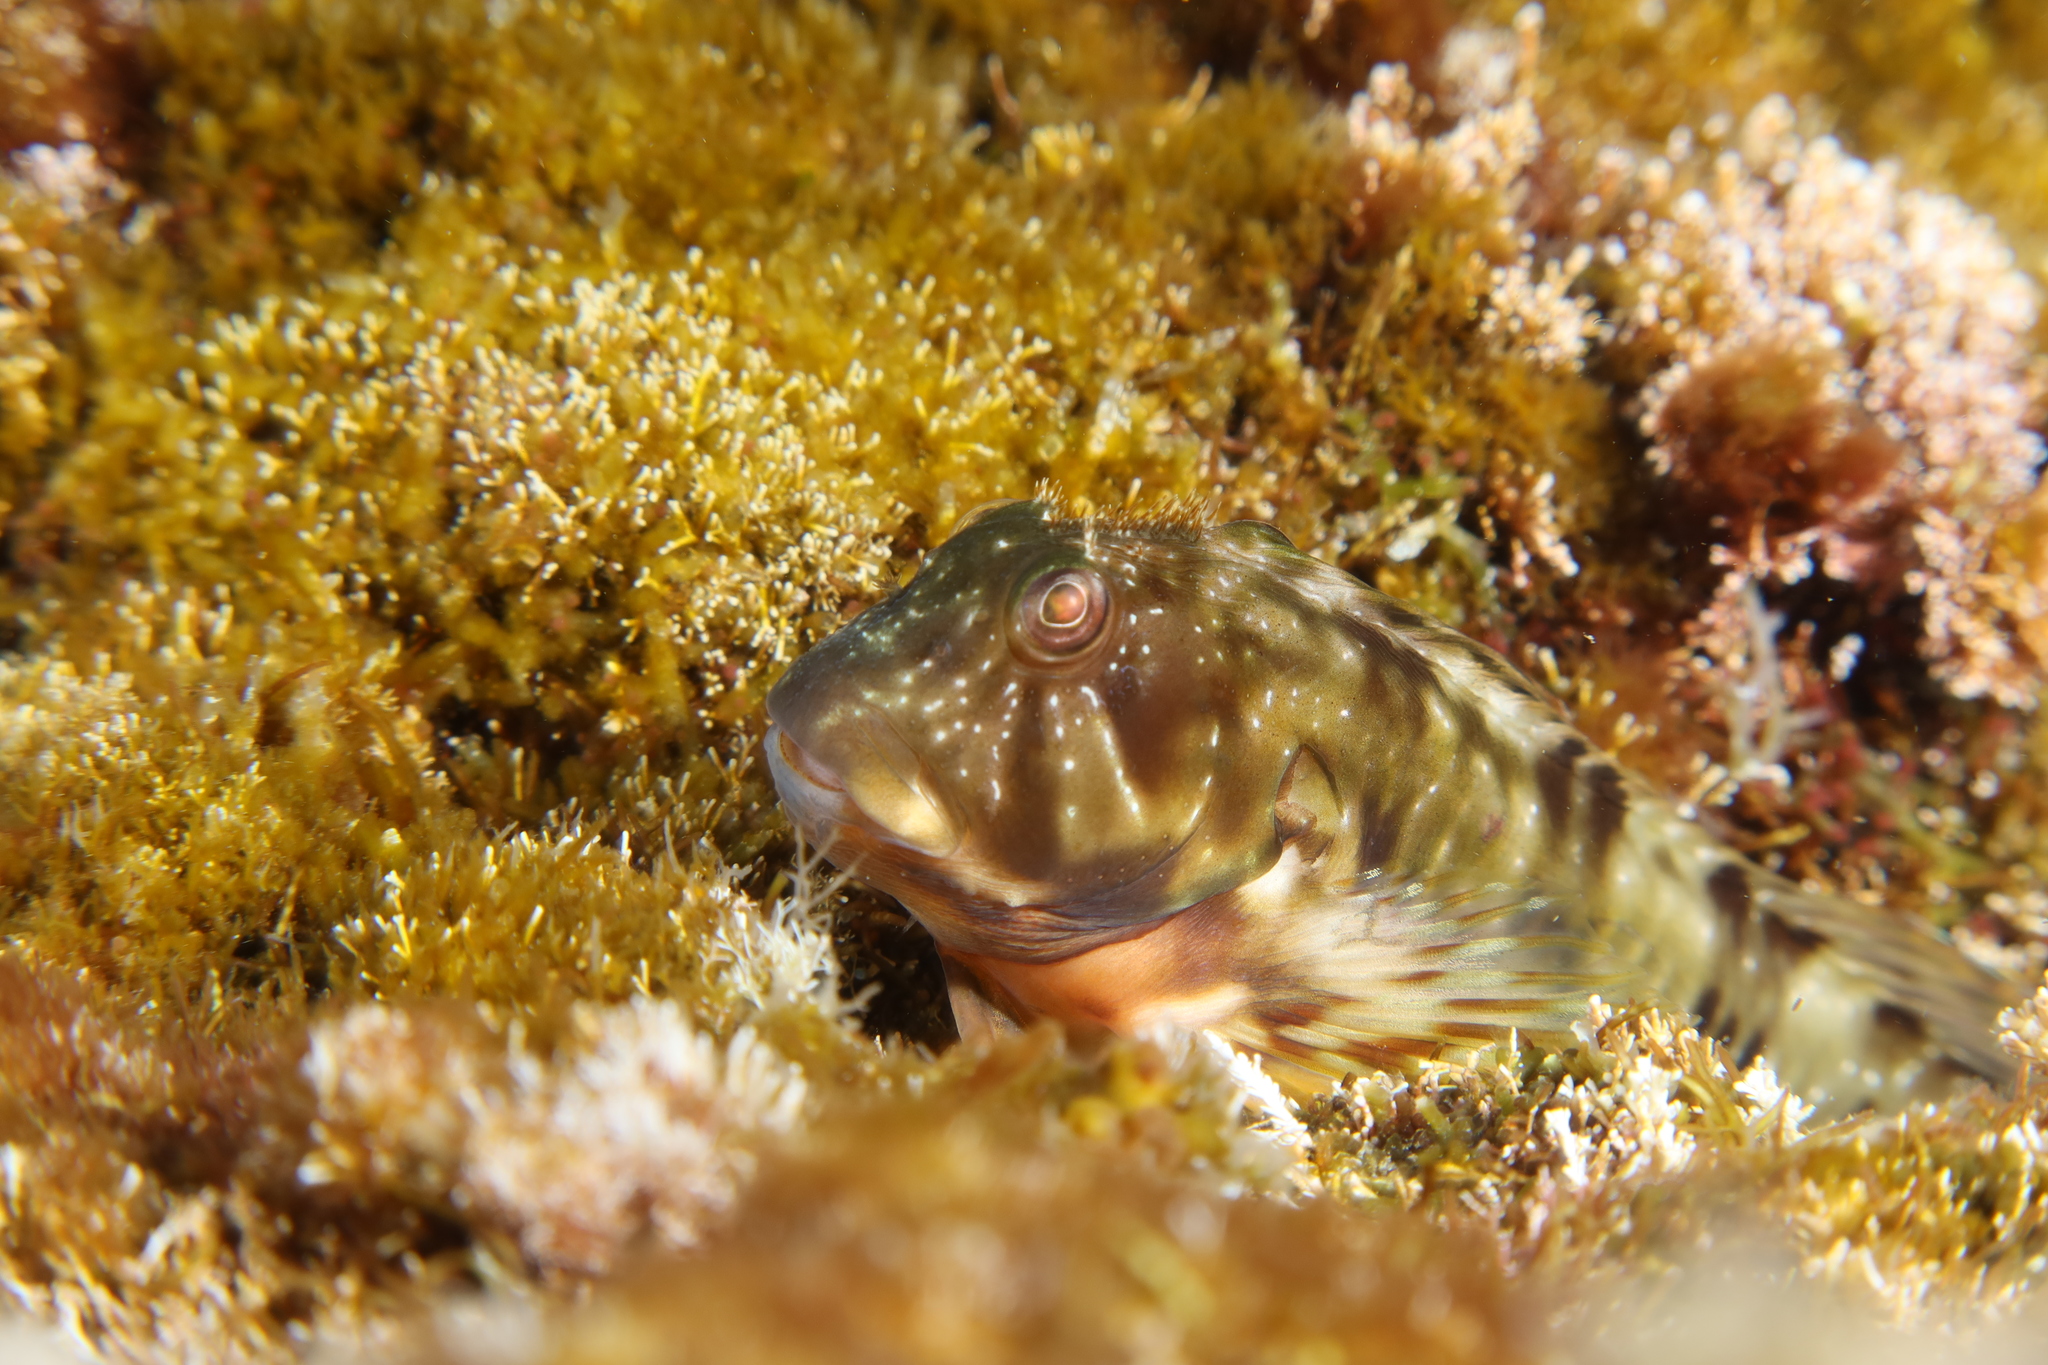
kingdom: Animalia
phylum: Chordata
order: Perciformes
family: Blenniidae
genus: Scartella
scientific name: Scartella cristata
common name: Molly miller
